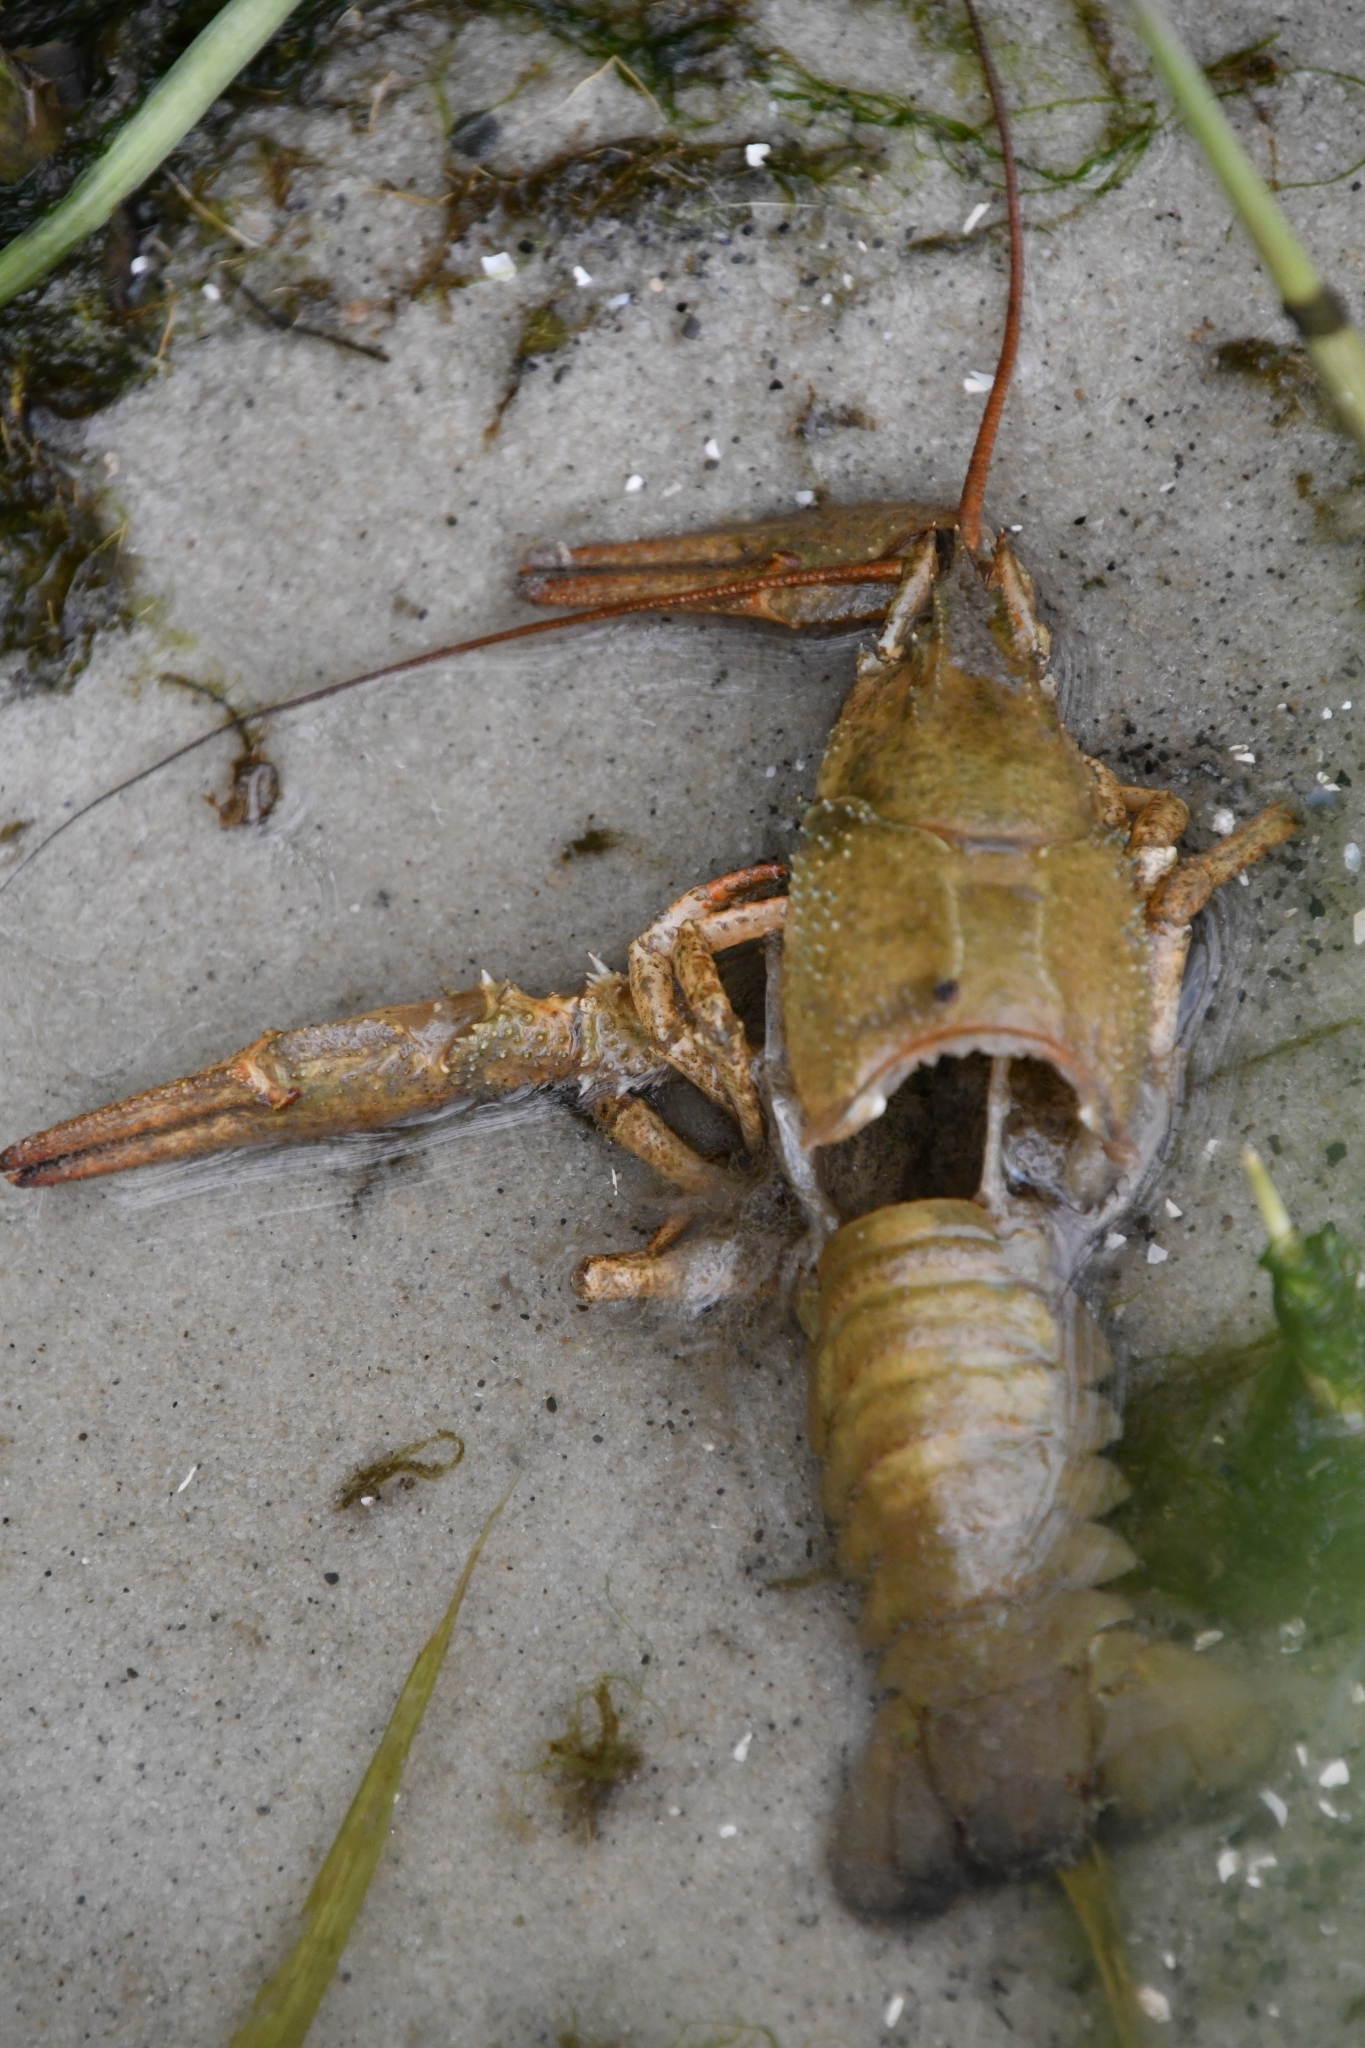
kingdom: Animalia
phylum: Arthropoda
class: Malacostraca
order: Decapoda
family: Astacidae
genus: Pontastacus
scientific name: Pontastacus leptodactylus
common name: Danube crayfish
